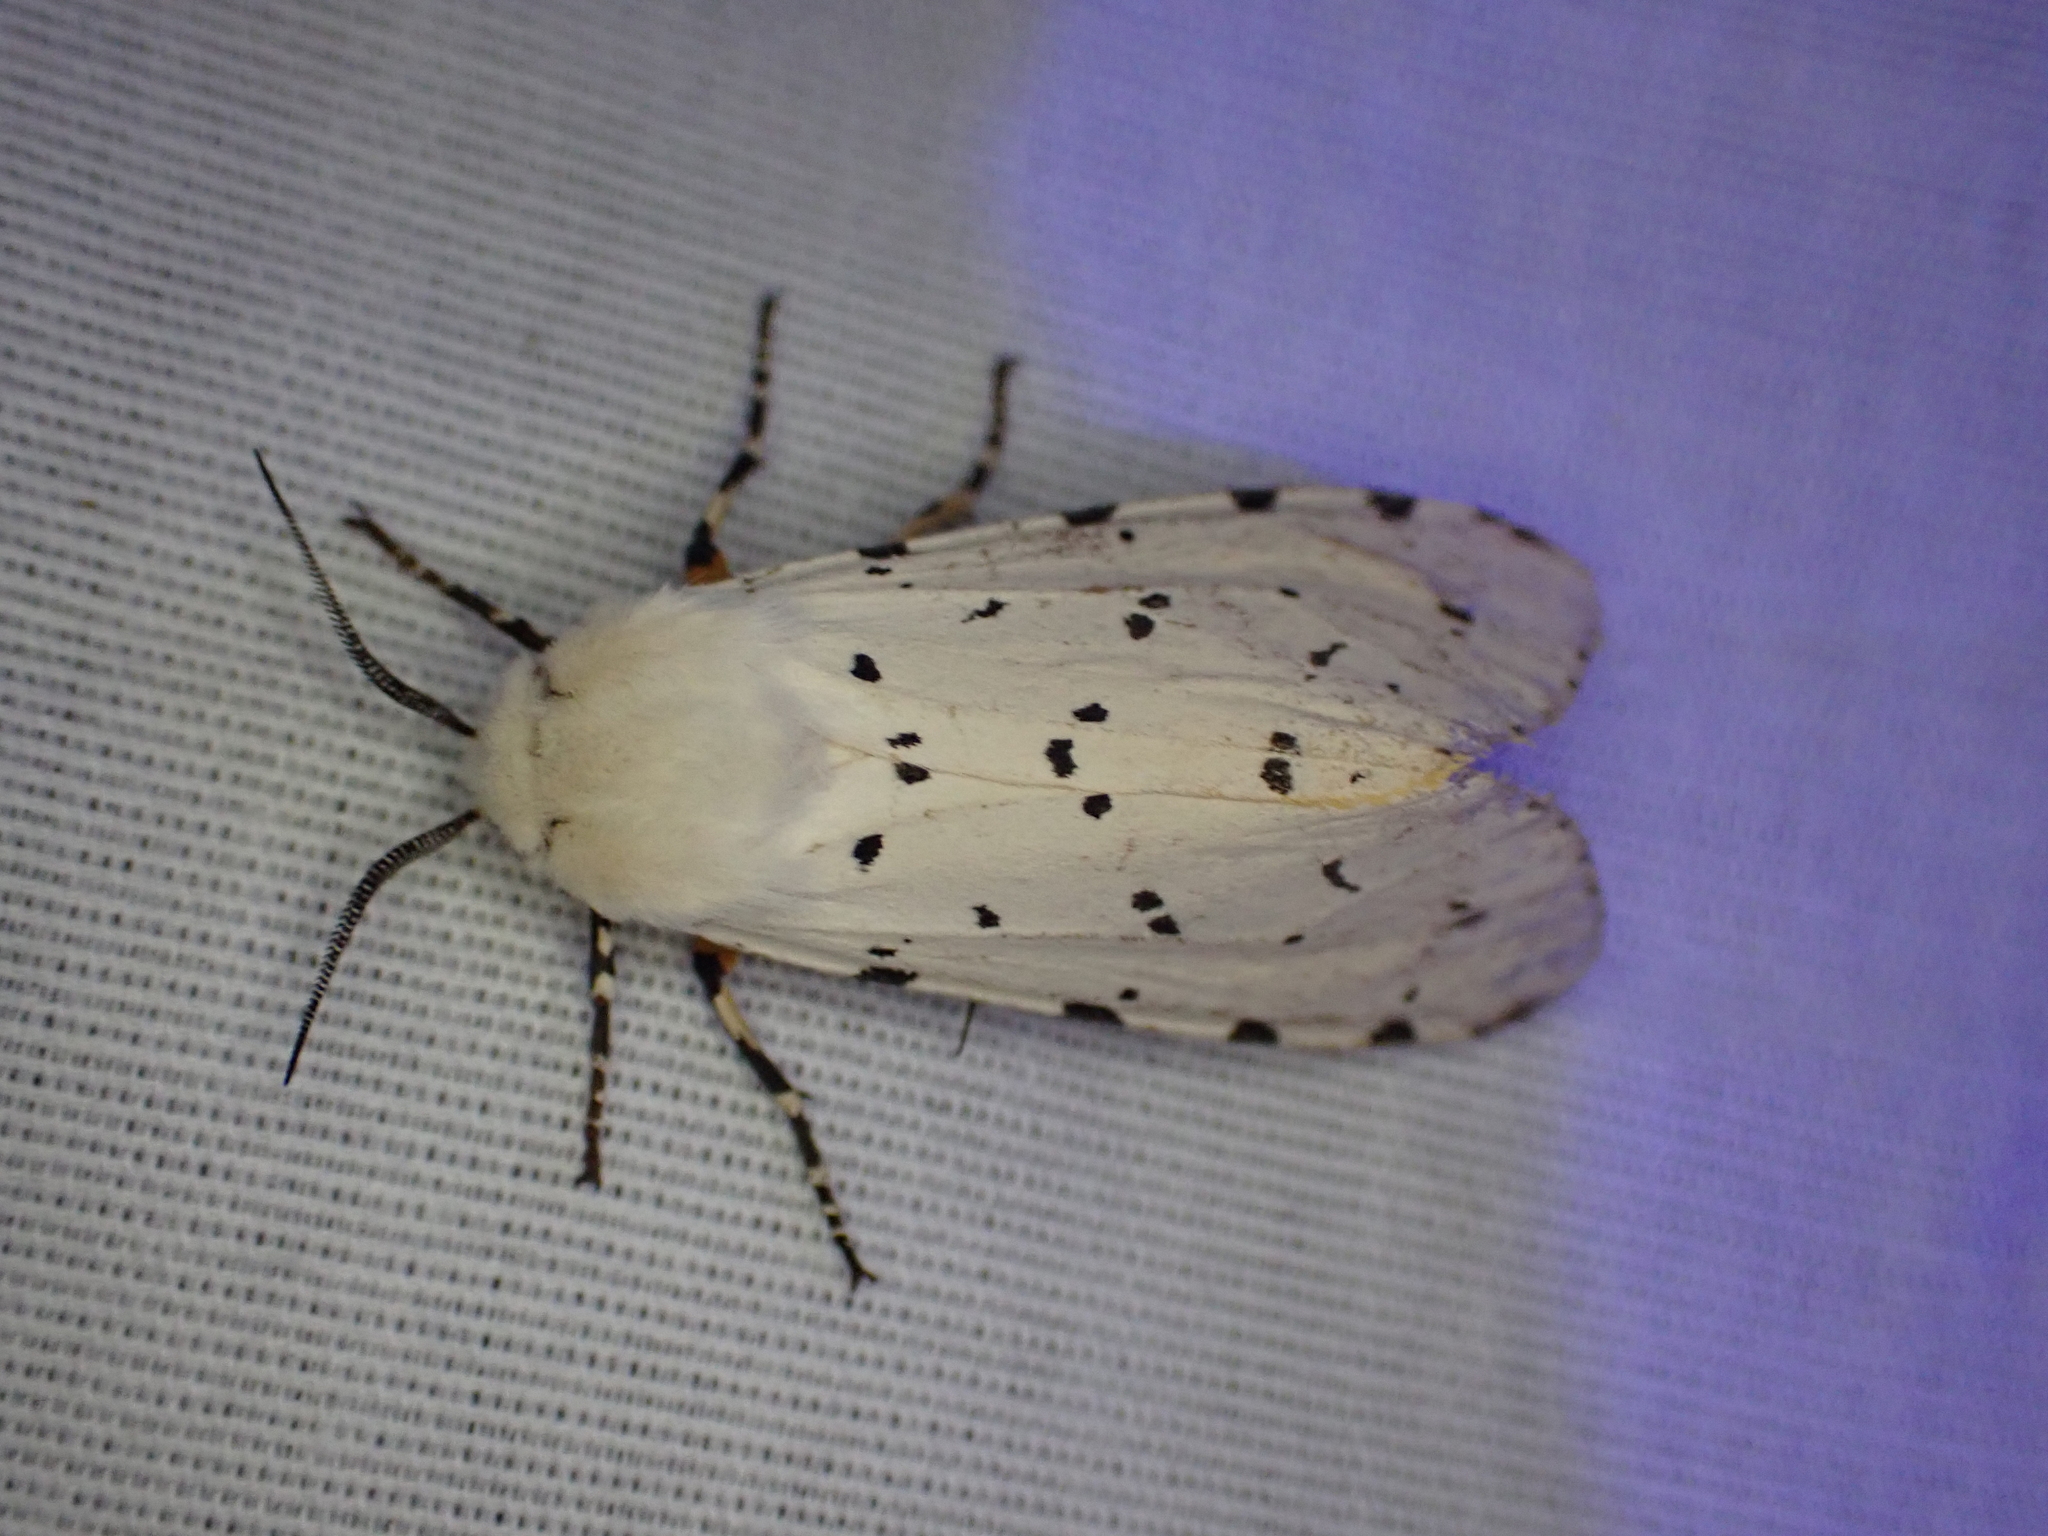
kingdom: Animalia
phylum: Arthropoda
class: Insecta
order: Lepidoptera
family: Erebidae
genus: Estigmene
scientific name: Estigmene acrea
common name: Salt marsh moth
